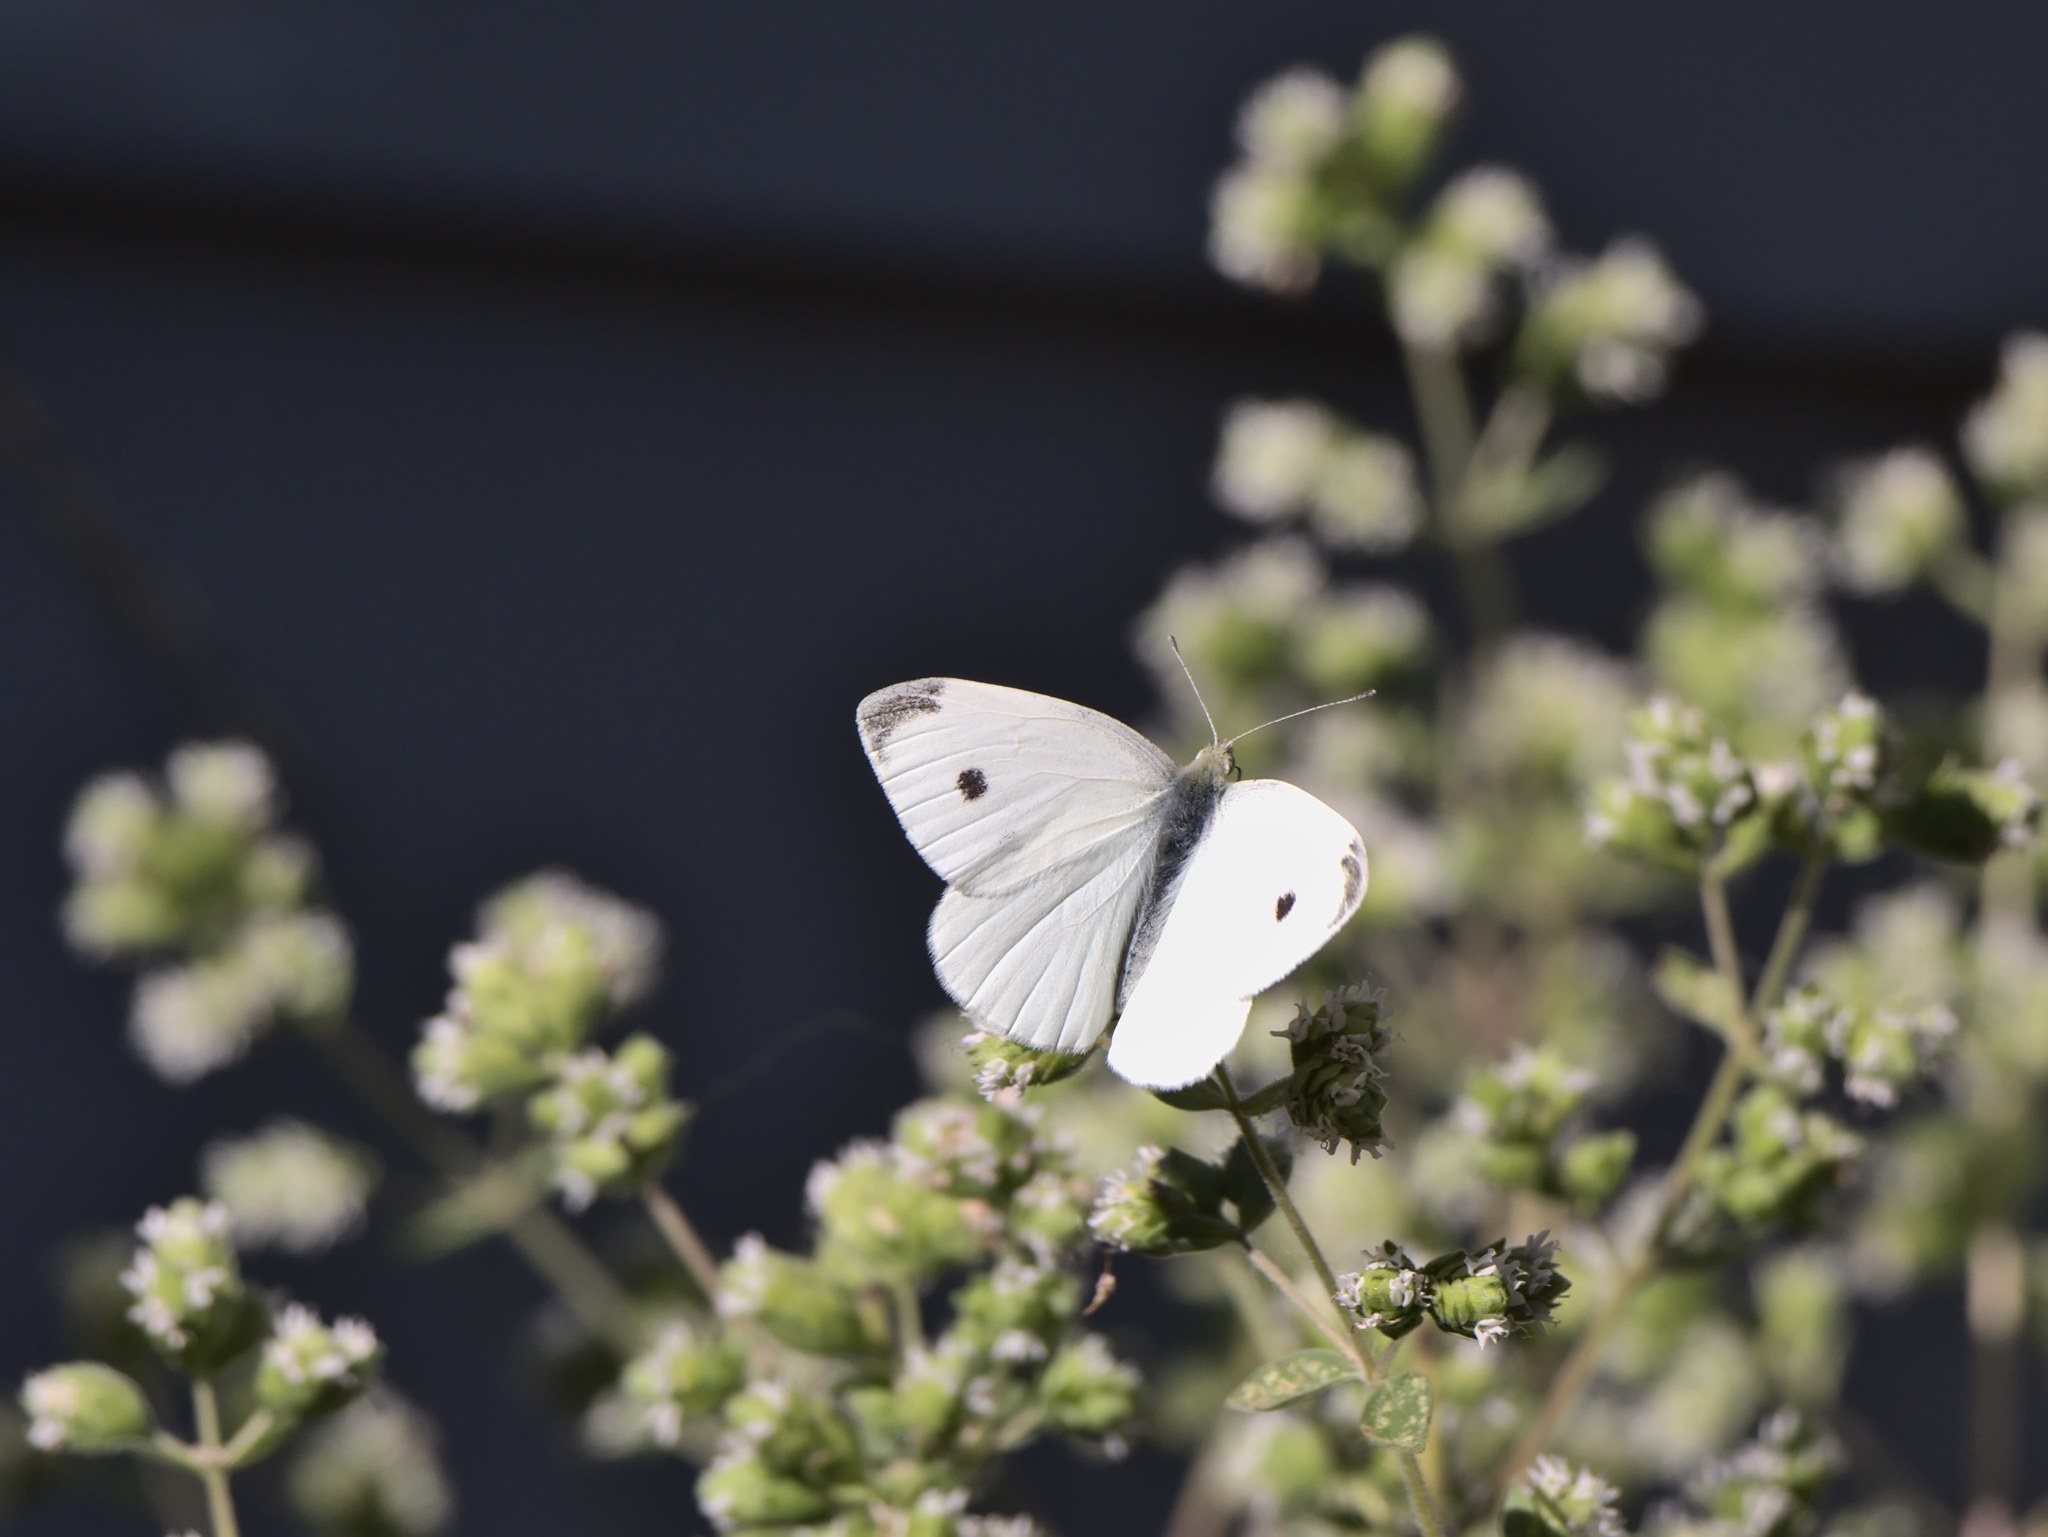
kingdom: Animalia
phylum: Arthropoda
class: Insecta
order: Lepidoptera
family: Pieridae
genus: Pieris
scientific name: Pieris rapae
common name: Small white
